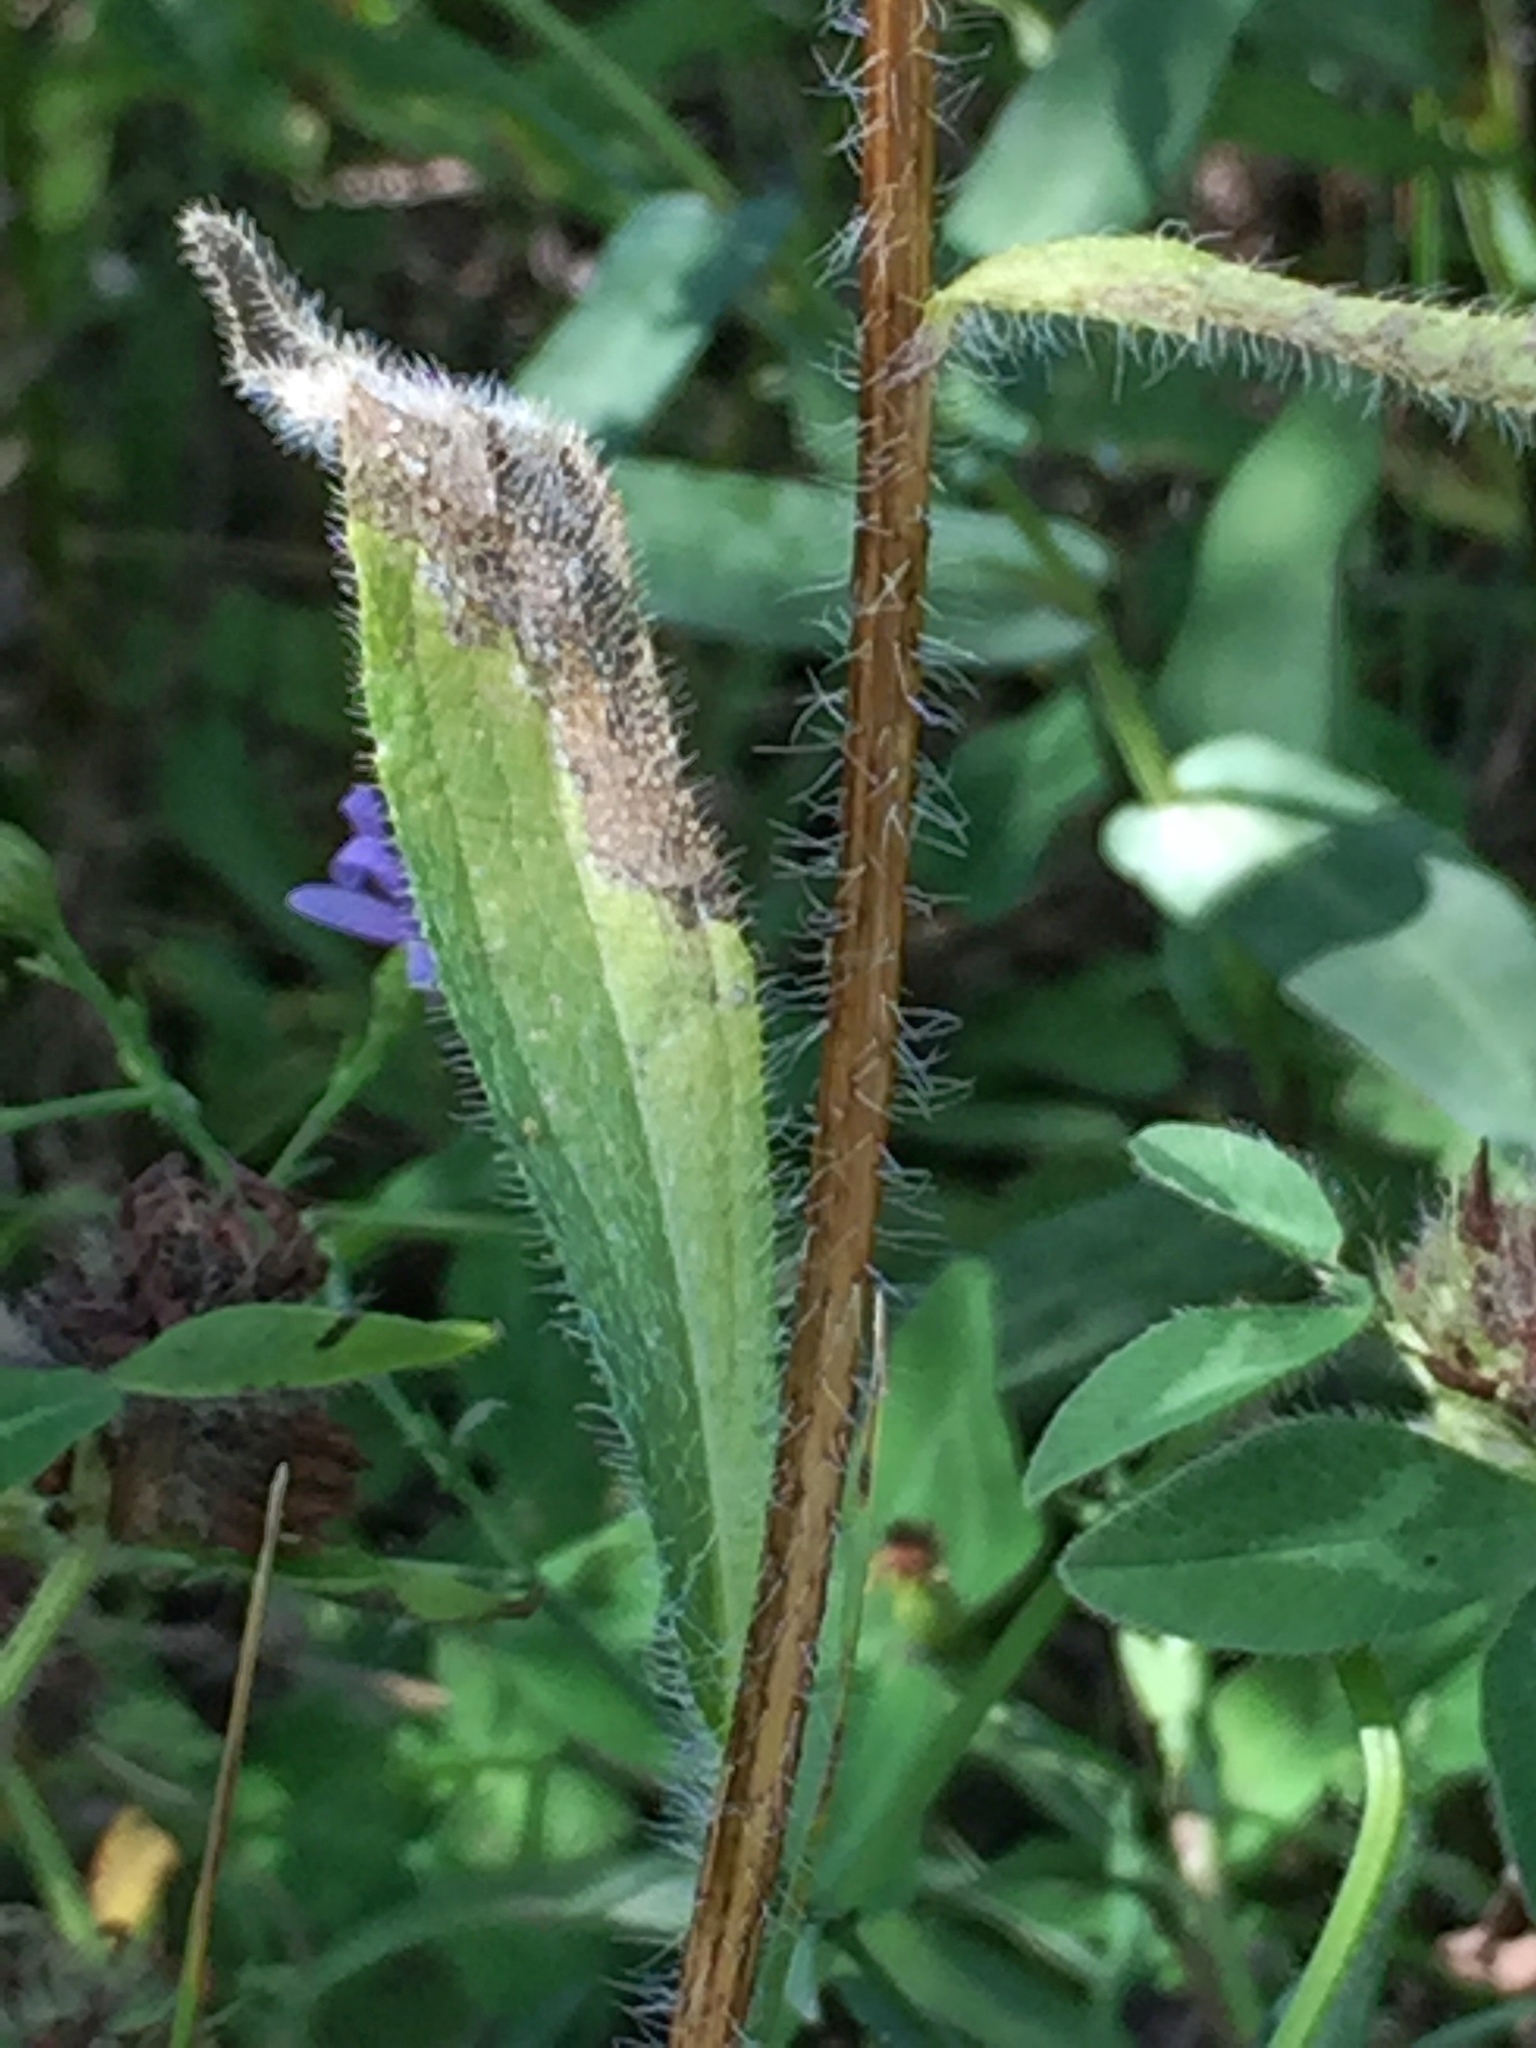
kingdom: Plantae
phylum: Tracheophyta
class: Magnoliopsida
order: Asterales
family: Asteraceae
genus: Rudbeckia
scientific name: Rudbeckia hirta
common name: Black-eyed-susan
